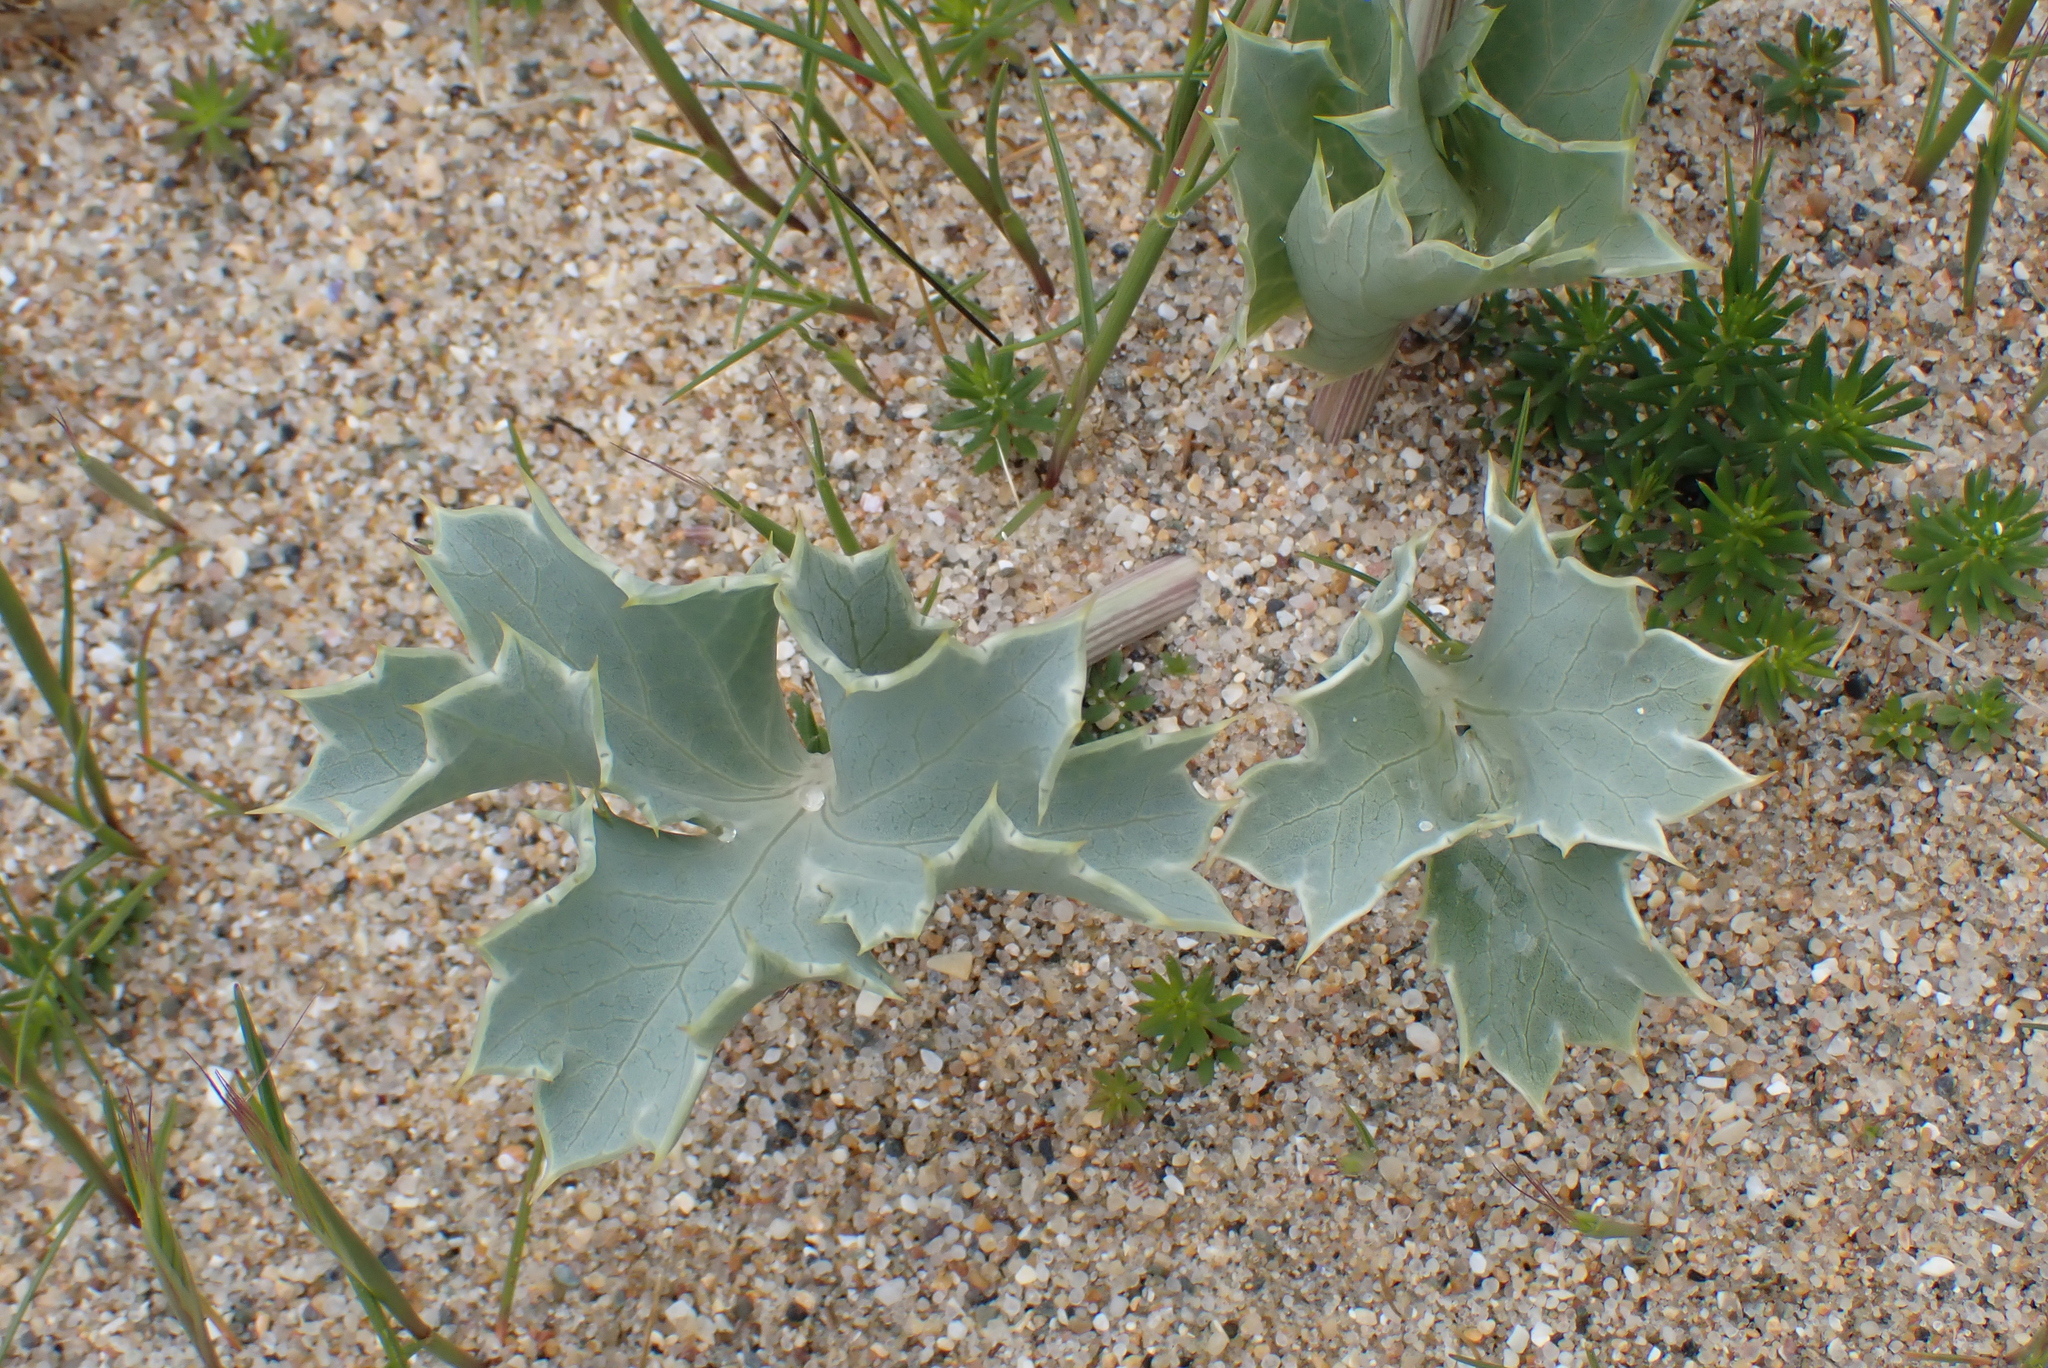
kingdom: Plantae
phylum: Tracheophyta
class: Magnoliopsida
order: Apiales
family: Apiaceae
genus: Eryngium
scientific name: Eryngium maritimum
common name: Sea-holly
